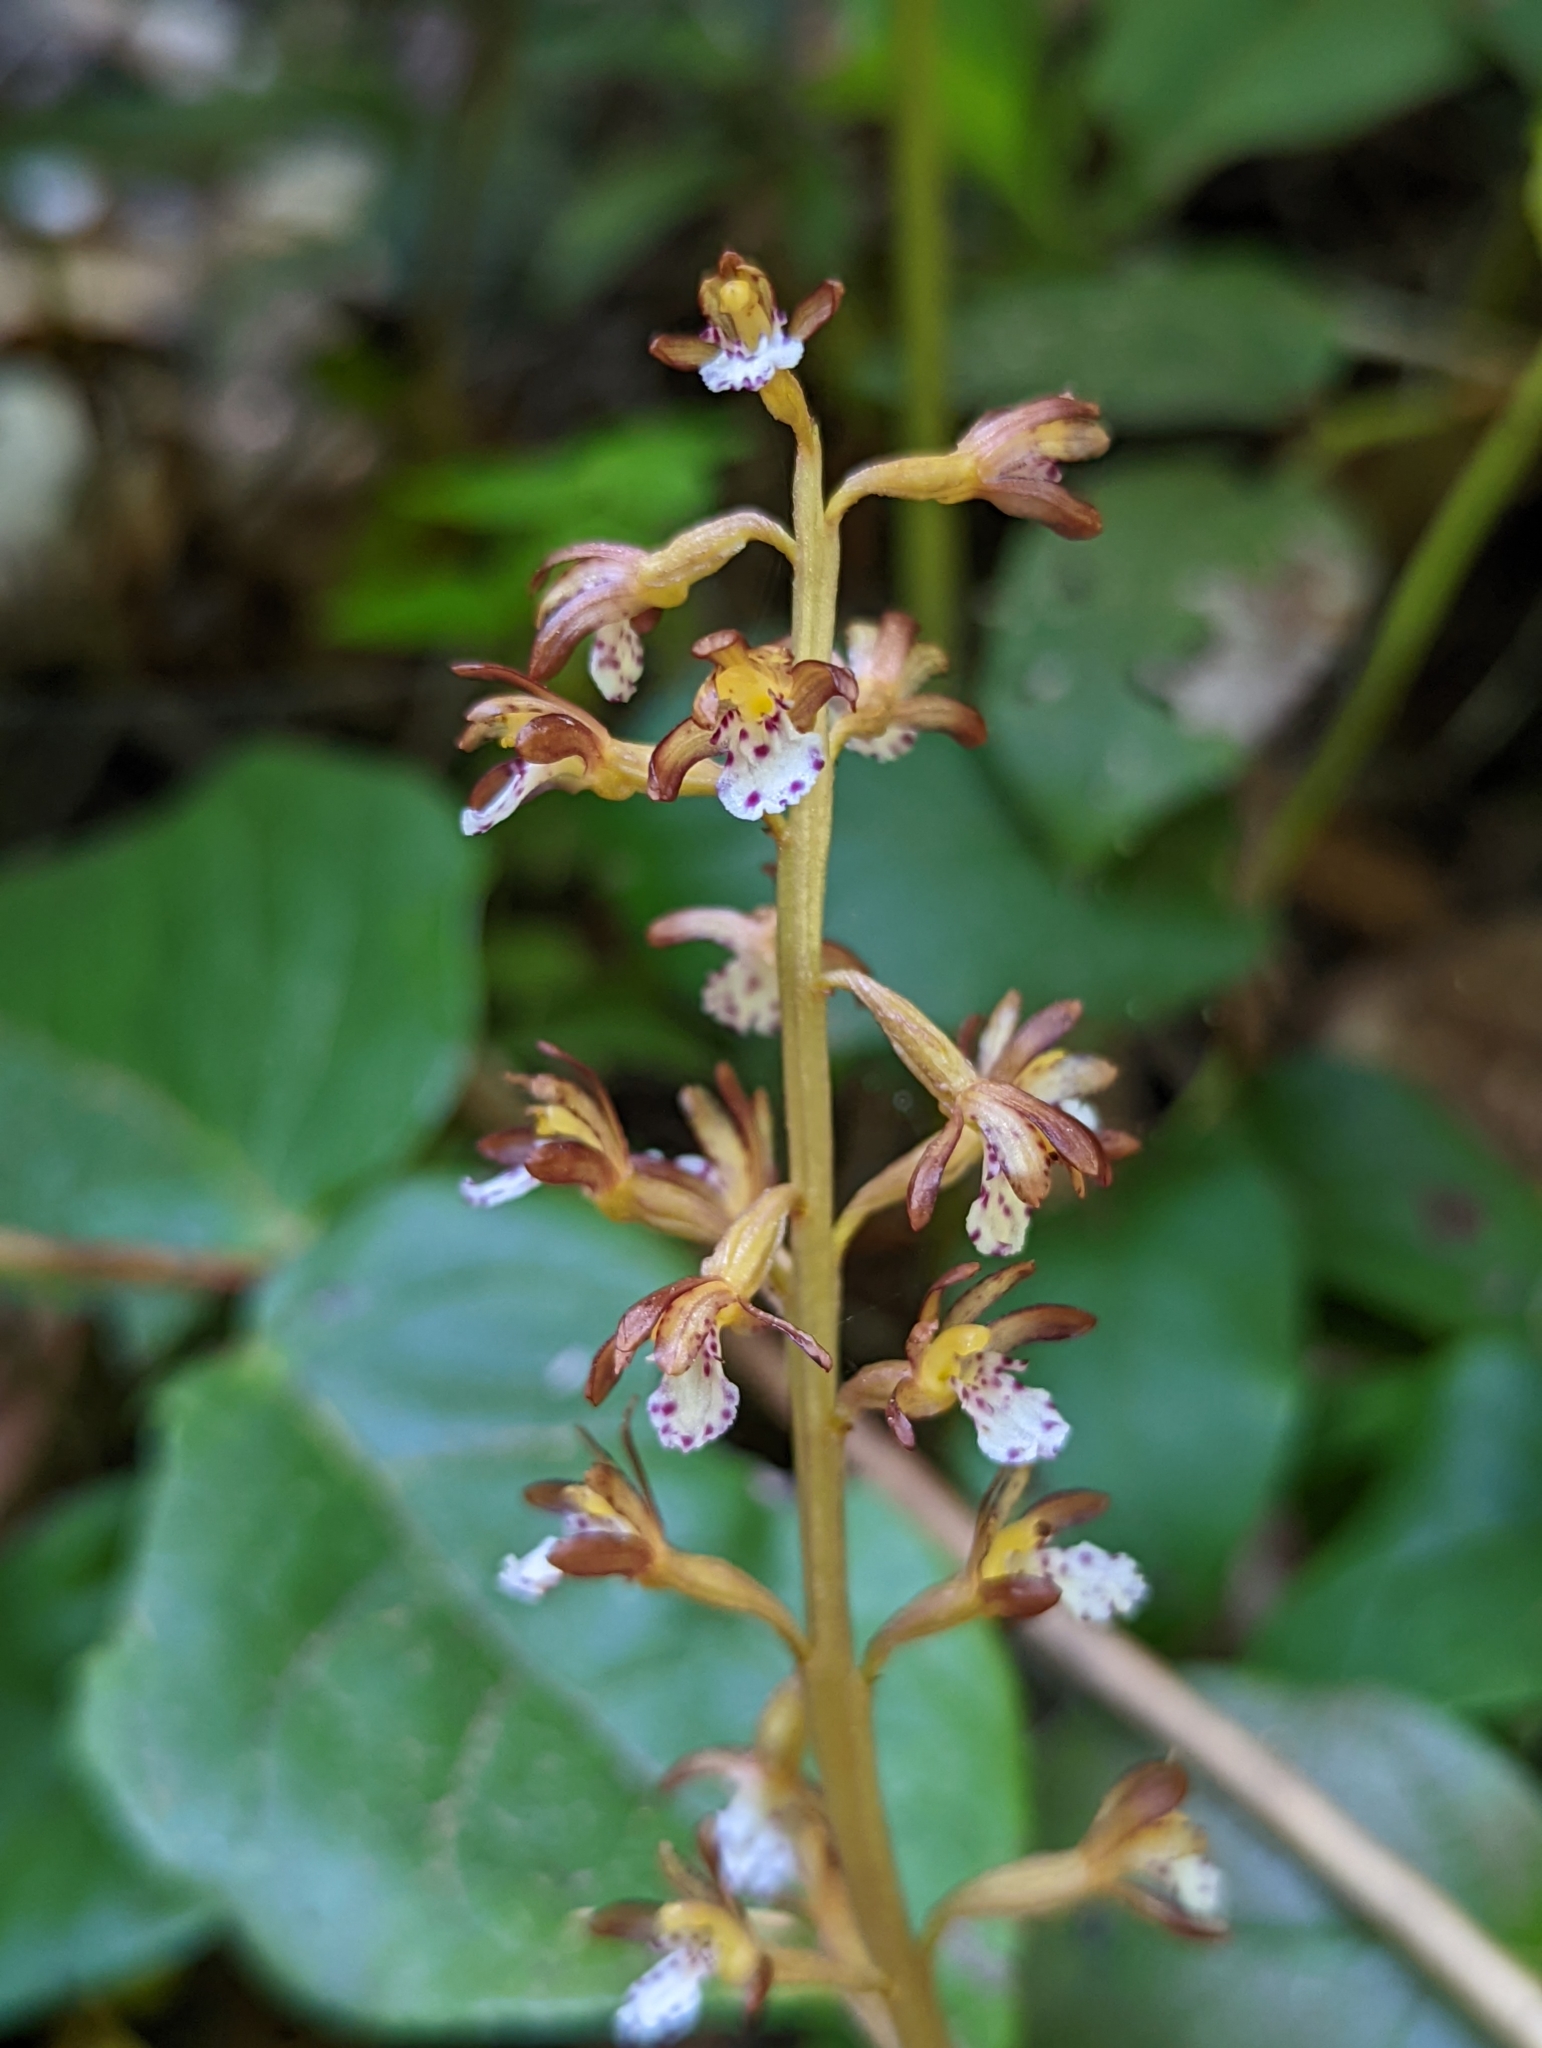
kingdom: Plantae
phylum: Tracheophyta
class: Liliopsida
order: Asparagales
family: Orchidaceae
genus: Corallorhiza
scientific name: Corallorhiza maculata
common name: Spotted coralroot
